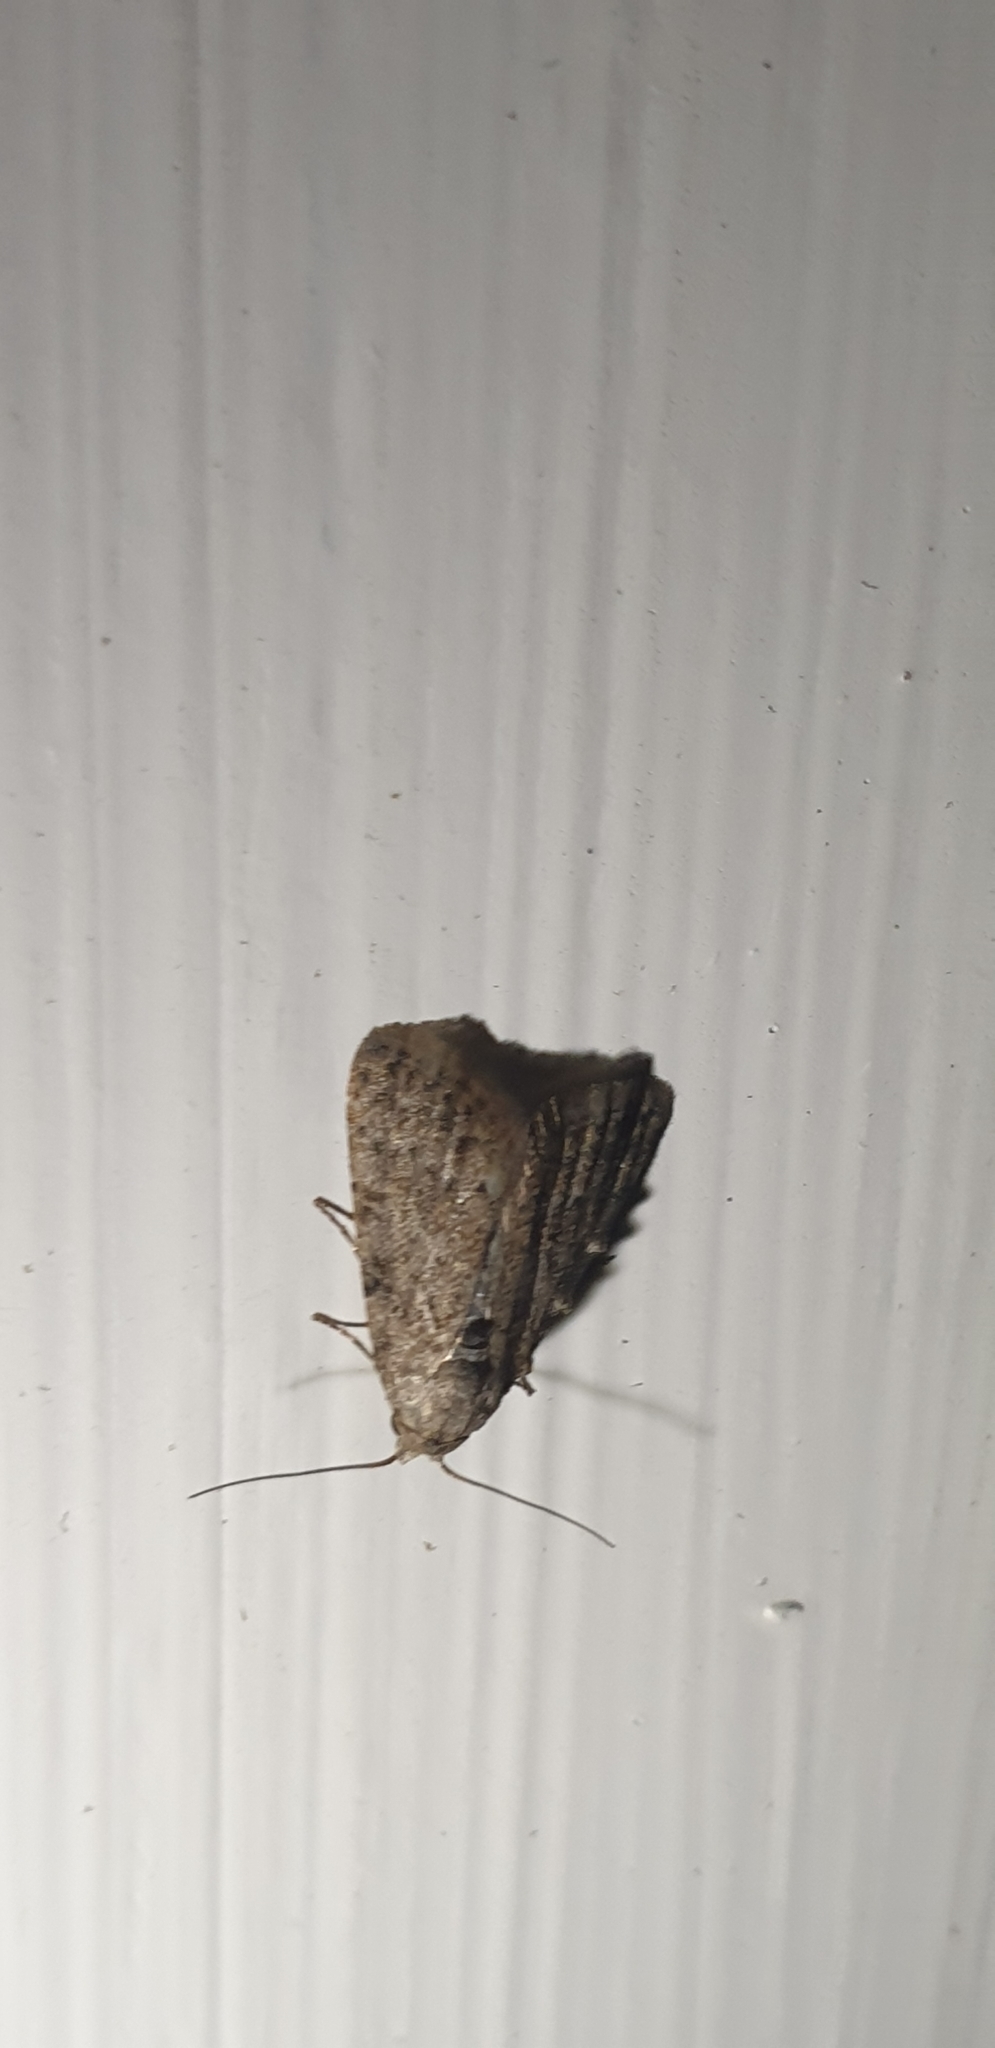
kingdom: Animalia
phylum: Arthropoda
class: Insecta
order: Lepidoptera
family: Nolidae
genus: Nola
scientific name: Nola squalida
